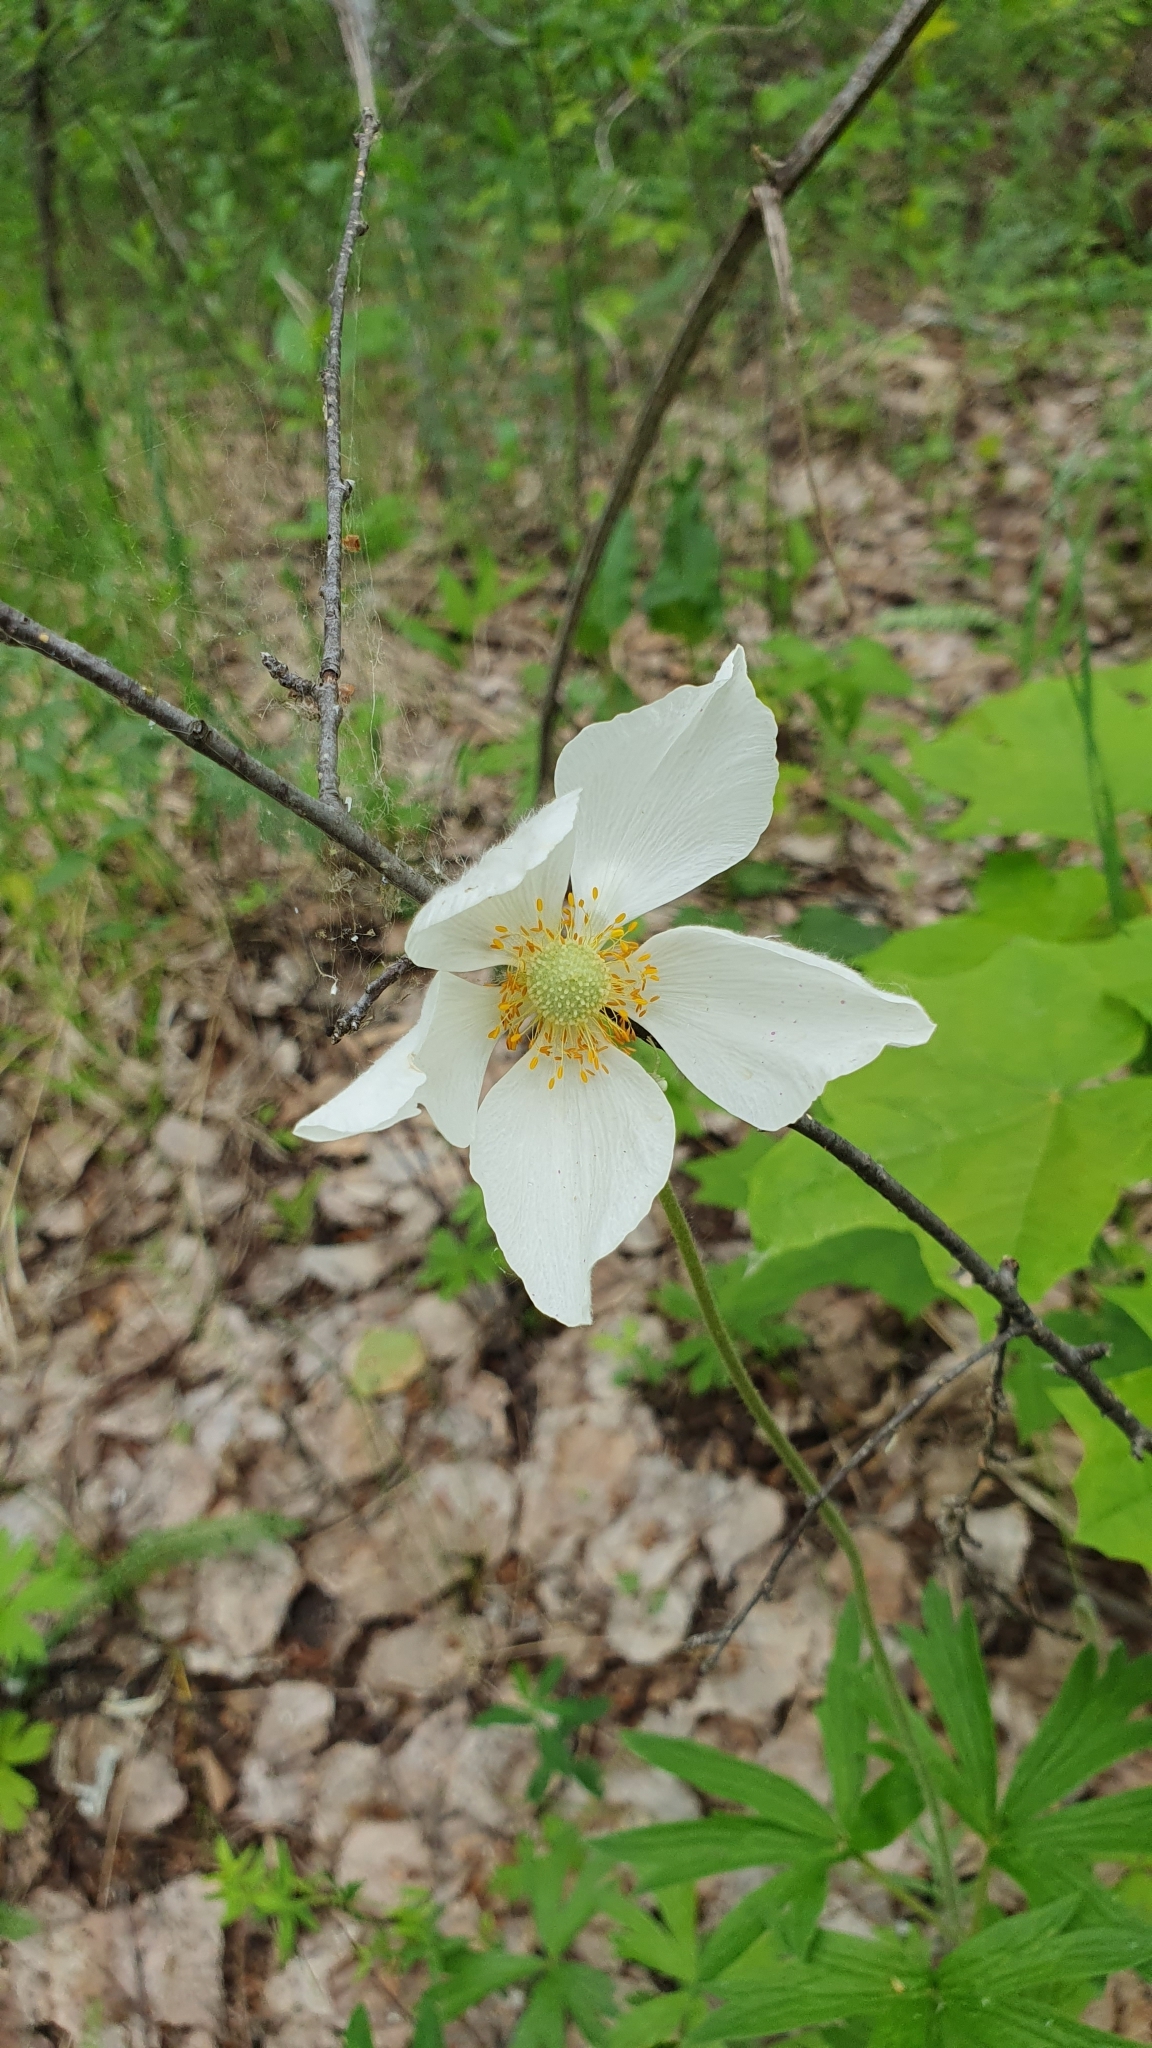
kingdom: Plantae
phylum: Tracheophyta
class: Magnoliopsida
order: Ranunculales
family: Ranunculaceae
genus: Anemone
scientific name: Anemone sylvestris
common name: Snowdrop anemone
